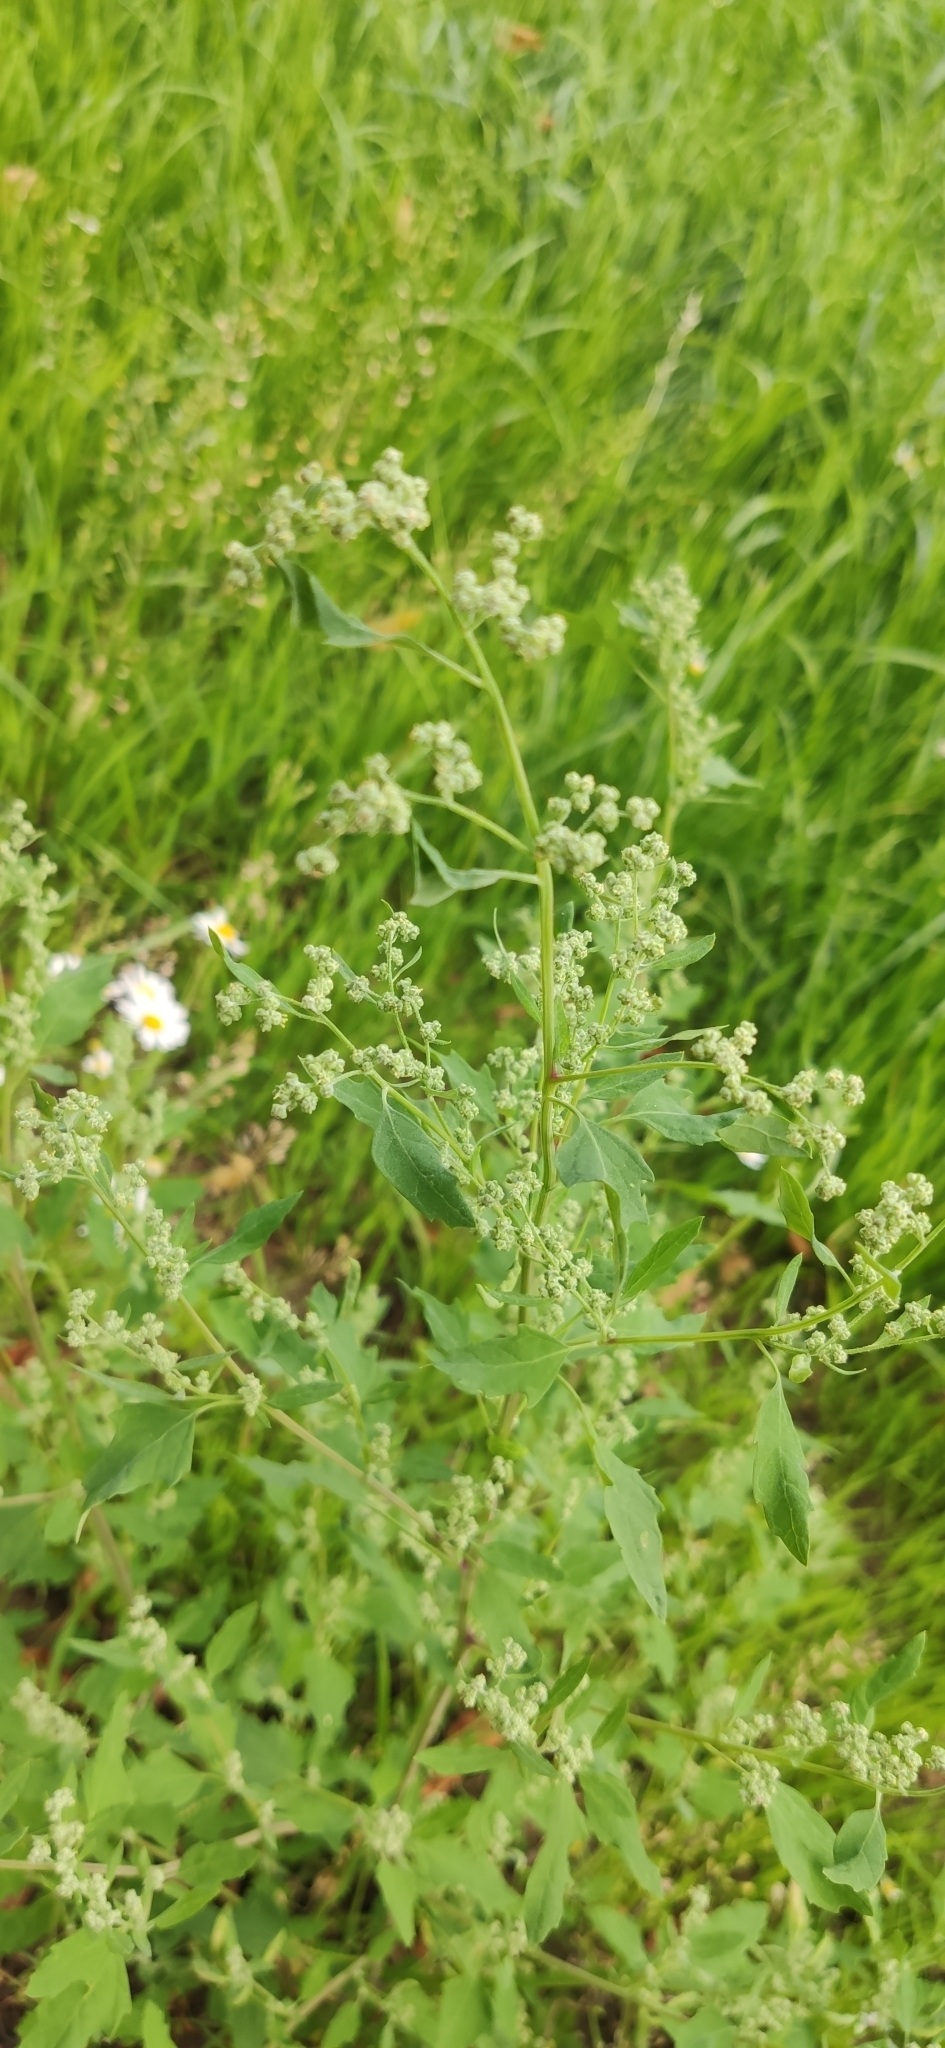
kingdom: Plantae
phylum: Tracheophyta
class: Magnoliopsida
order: Caryophyllales
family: Amaranthaceae
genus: Chenopodium
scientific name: Chenopodium album
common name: Fat-hen
